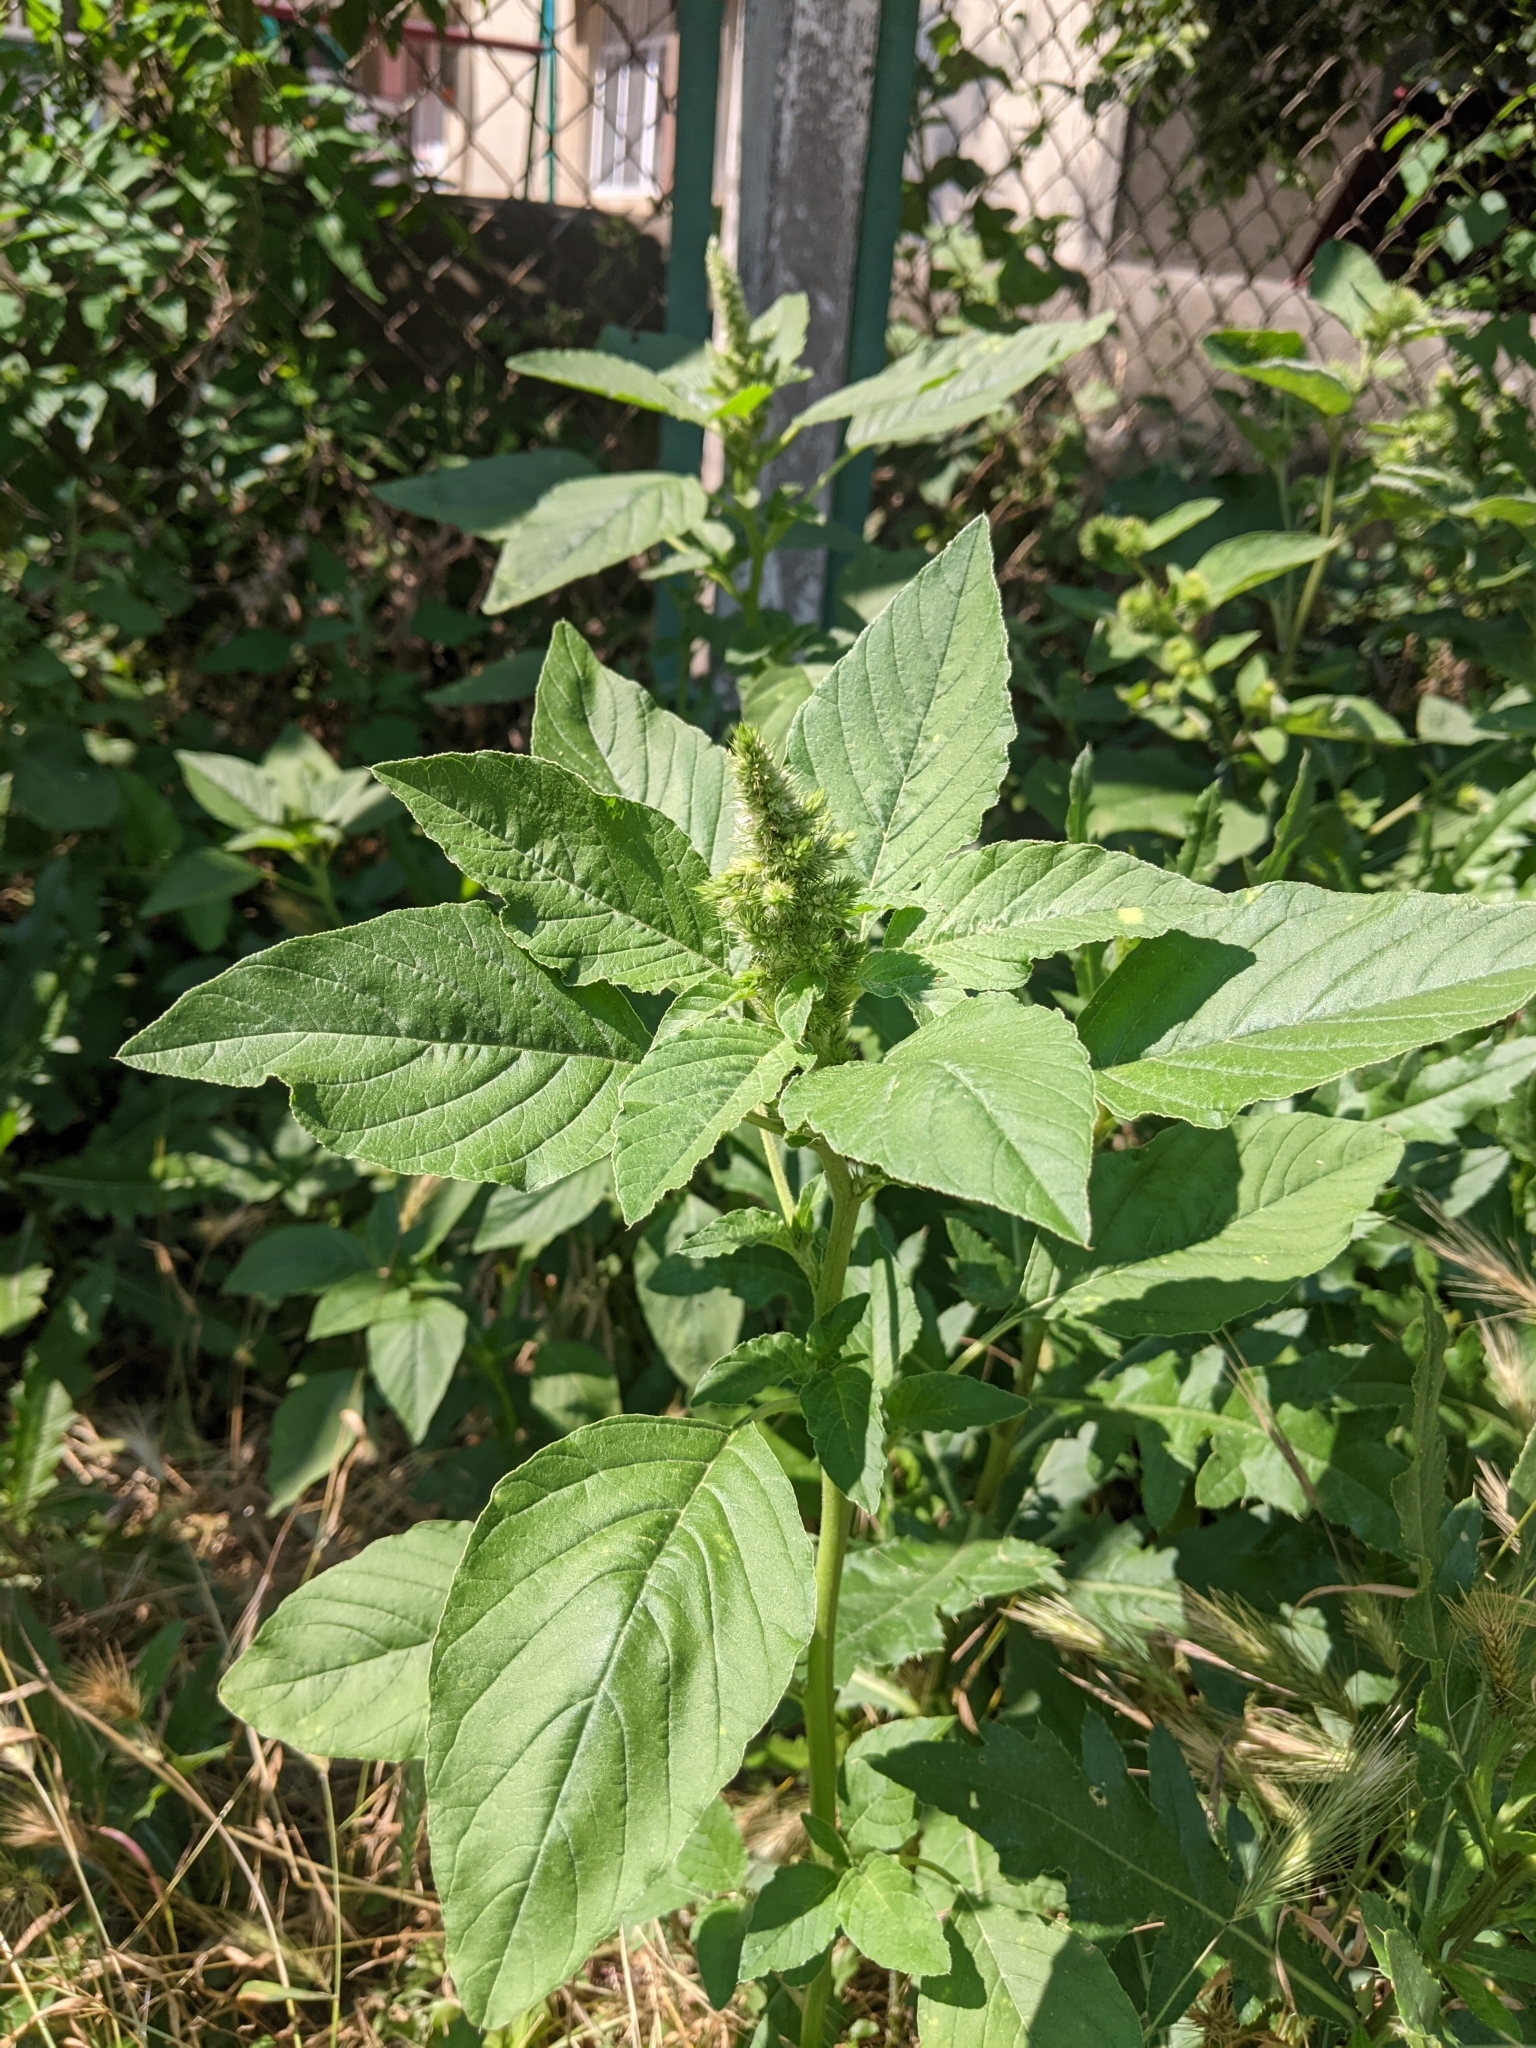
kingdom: Plantae
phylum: Tracheophyta
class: Magnoliopsida
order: Caryophyllales
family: Amaranthaceae
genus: Amaranthus
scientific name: Amaranthus retroflexus
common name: Redroot amaranth
